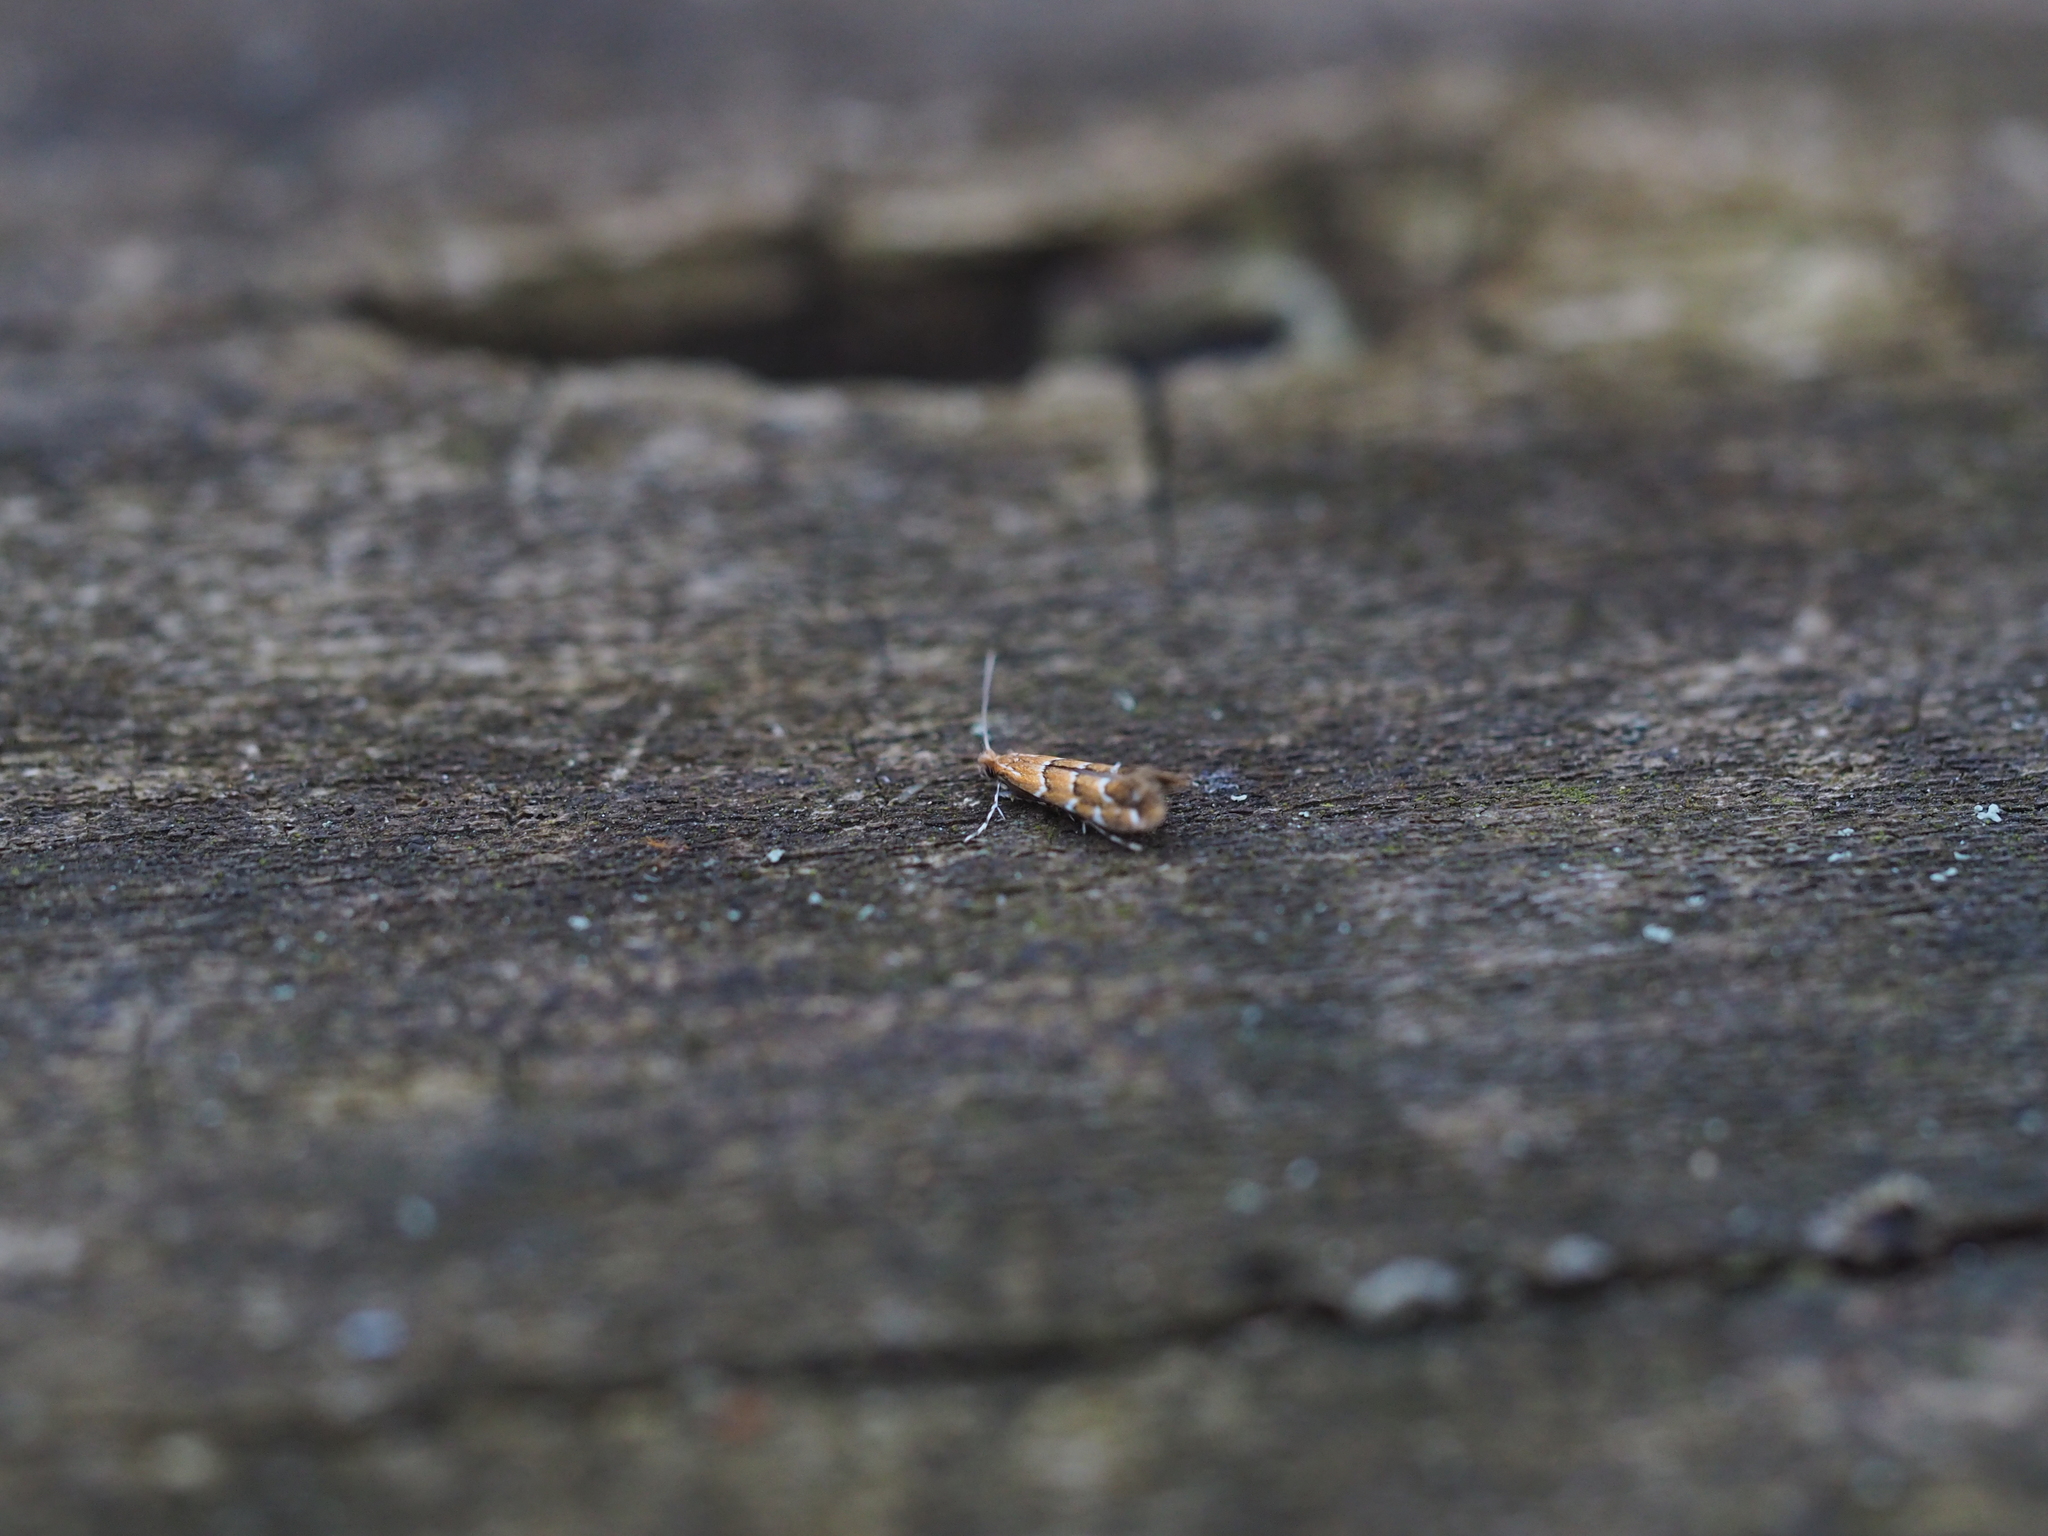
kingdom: Animalia
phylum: Arthropoda
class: Insecta
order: Lepidoptera
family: Gracillariidae
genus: Cameraria
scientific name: Cameraria ohridella
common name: Horse-chestnut leaf-miner
